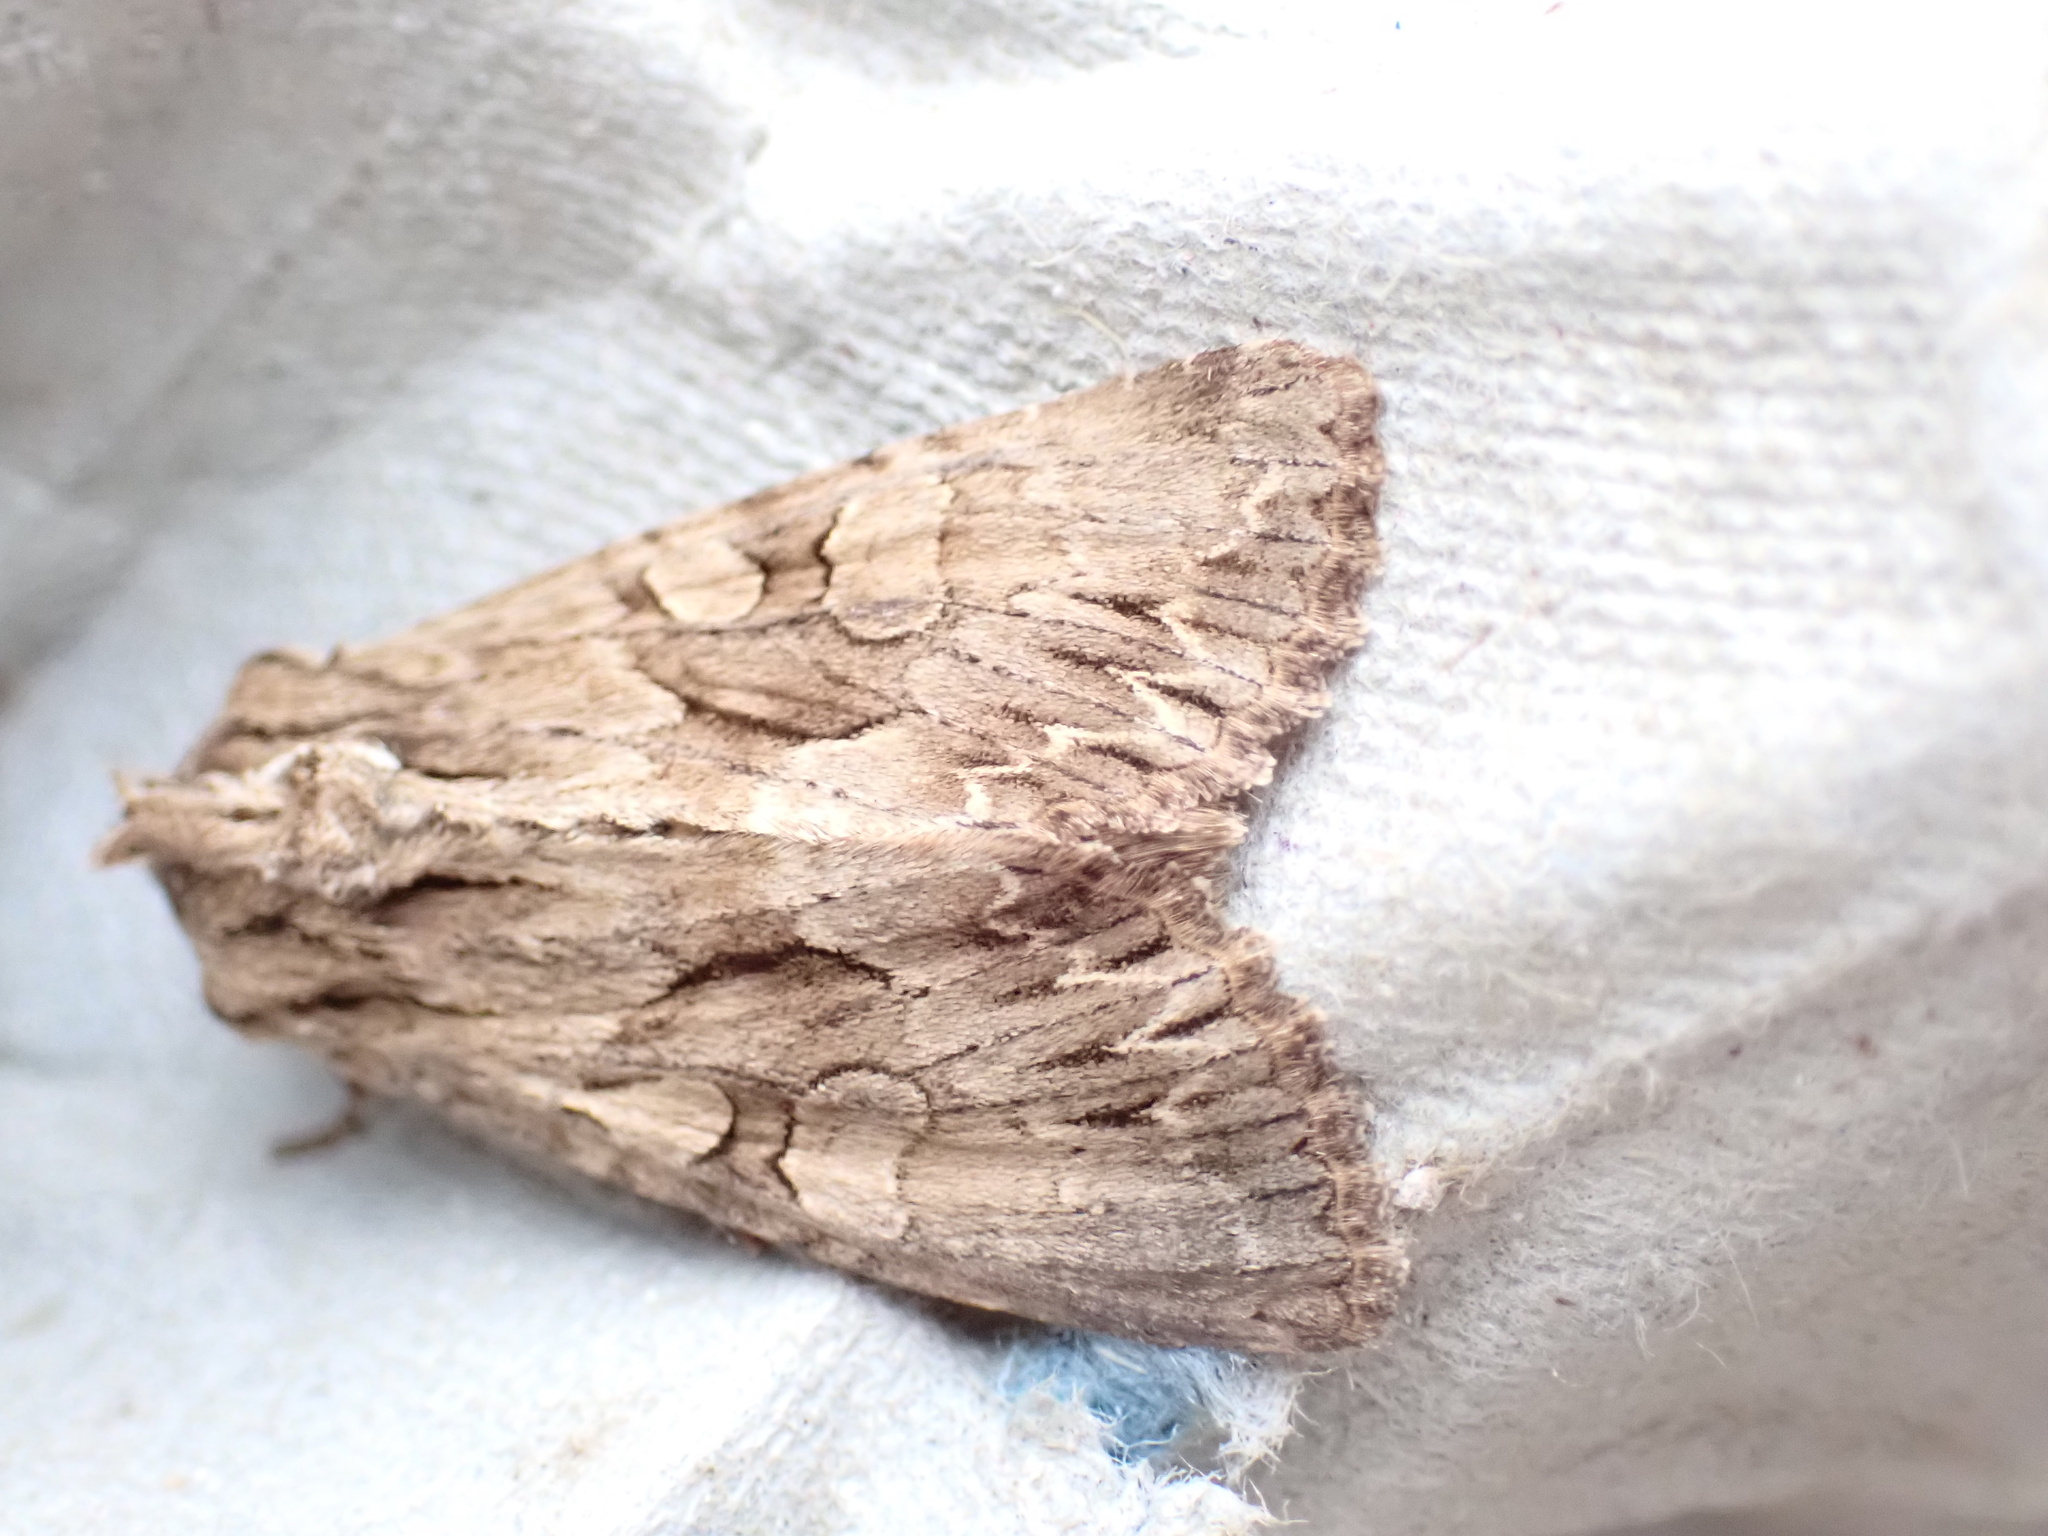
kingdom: Animalia
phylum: Arthropoda
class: Insecta
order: Lepidoptera
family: Noctuidae
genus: Apamea
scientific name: Apamea monoglypha
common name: Dark arches
